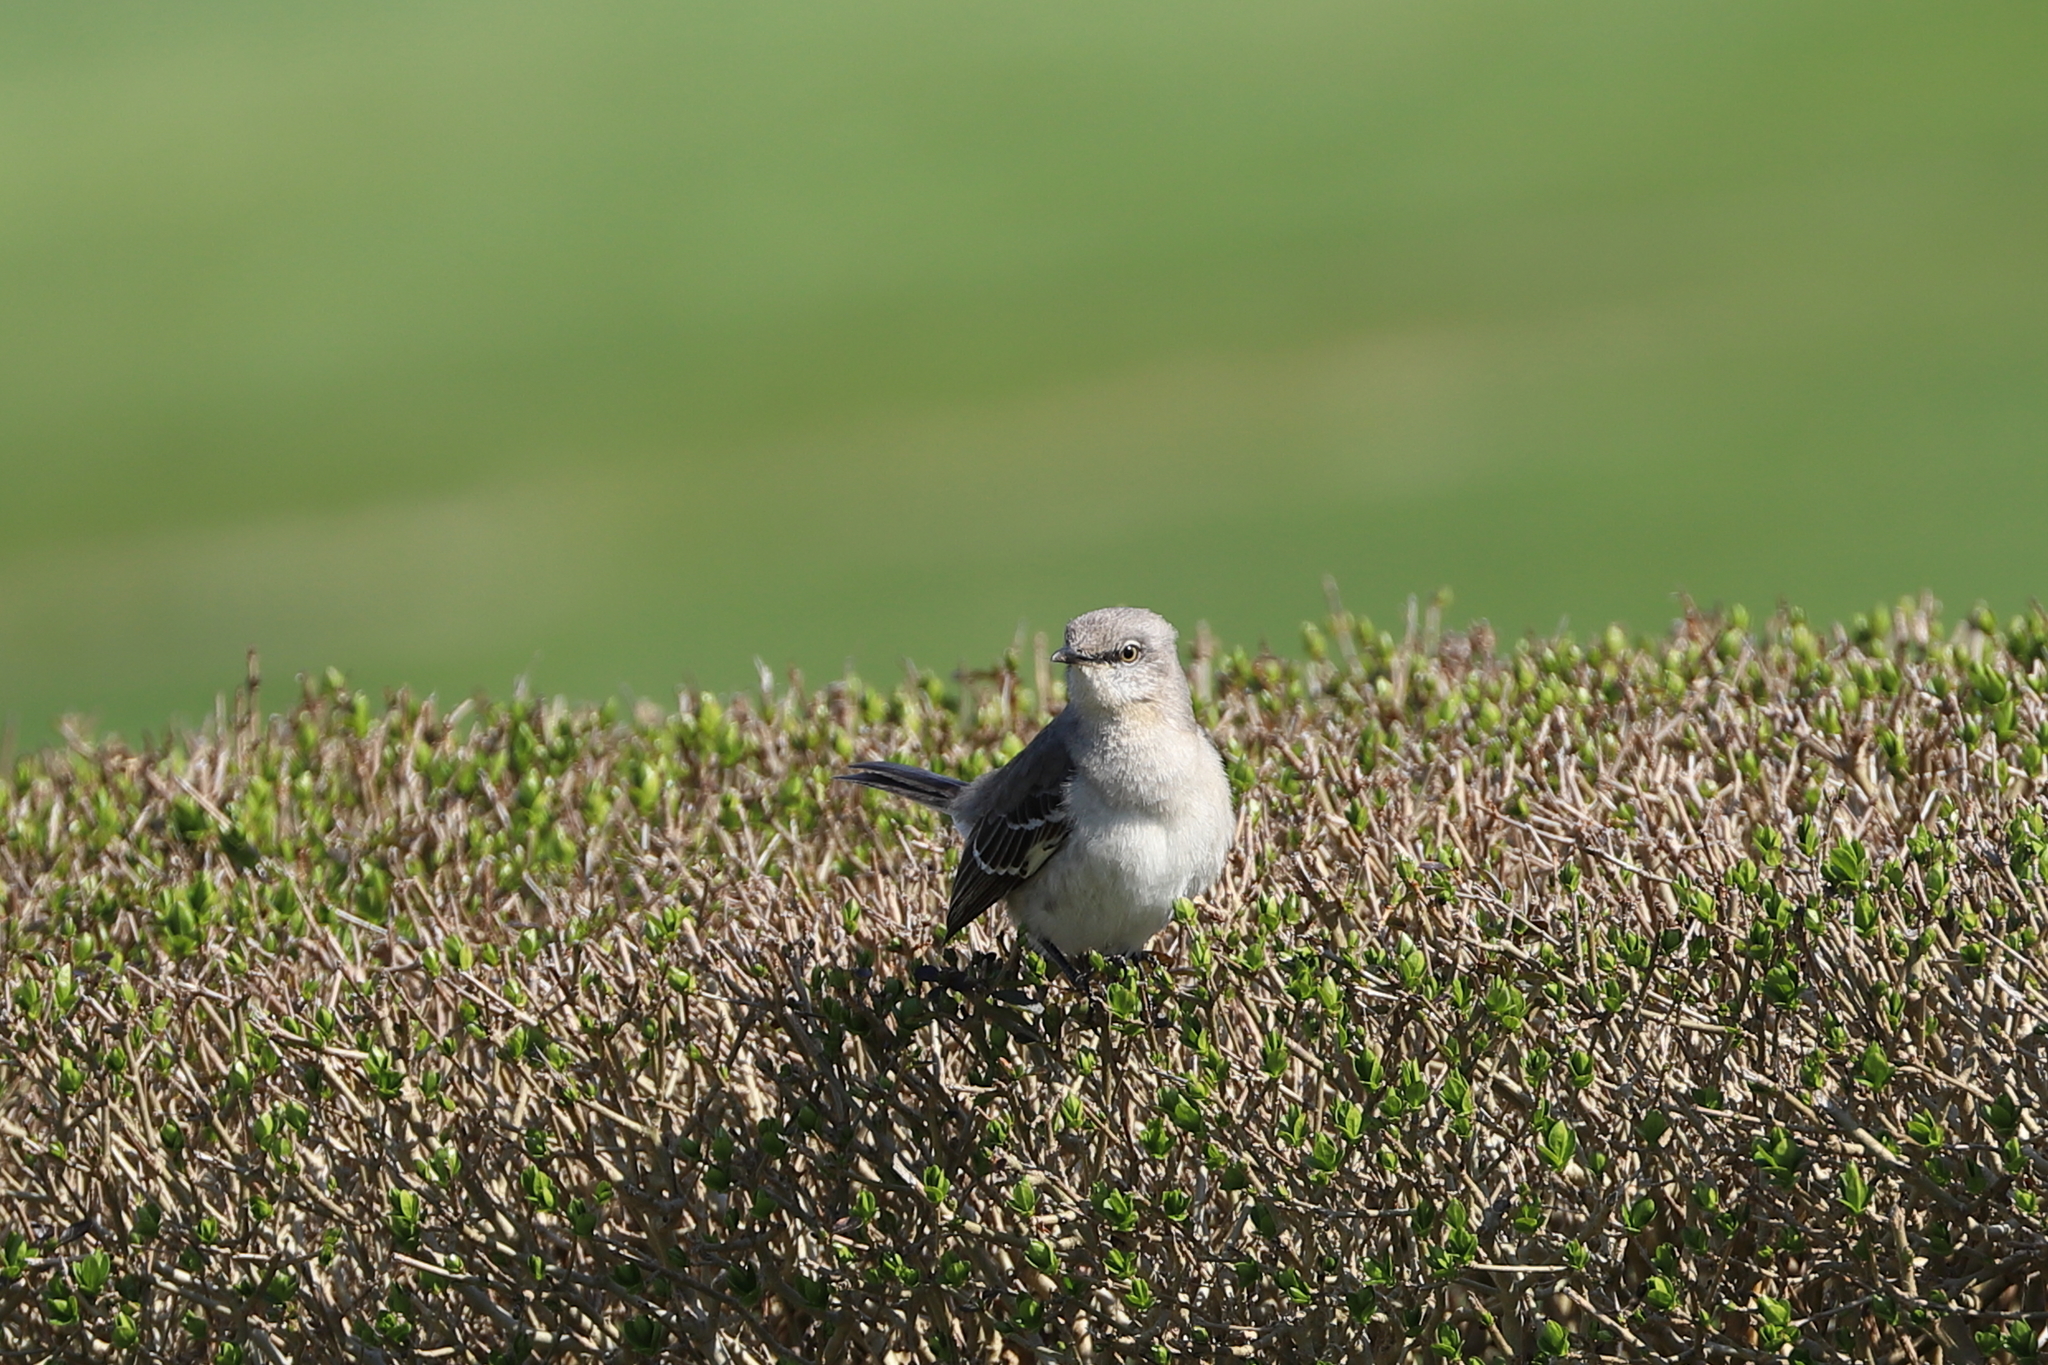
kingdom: Animalia
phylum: Chordata
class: Aves
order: Passeriformes
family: Mimidae
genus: Mimus
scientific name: Mimus polyglottos
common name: Northern mockingbird
